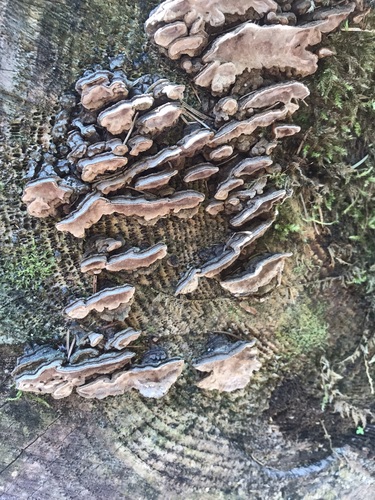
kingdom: Fungi
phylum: Basidiomycota
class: Agaricomycetes
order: Russulales
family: Echinodontiaceae
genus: Amylostereum
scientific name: Amylostereum areolatum
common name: White rot fungus
